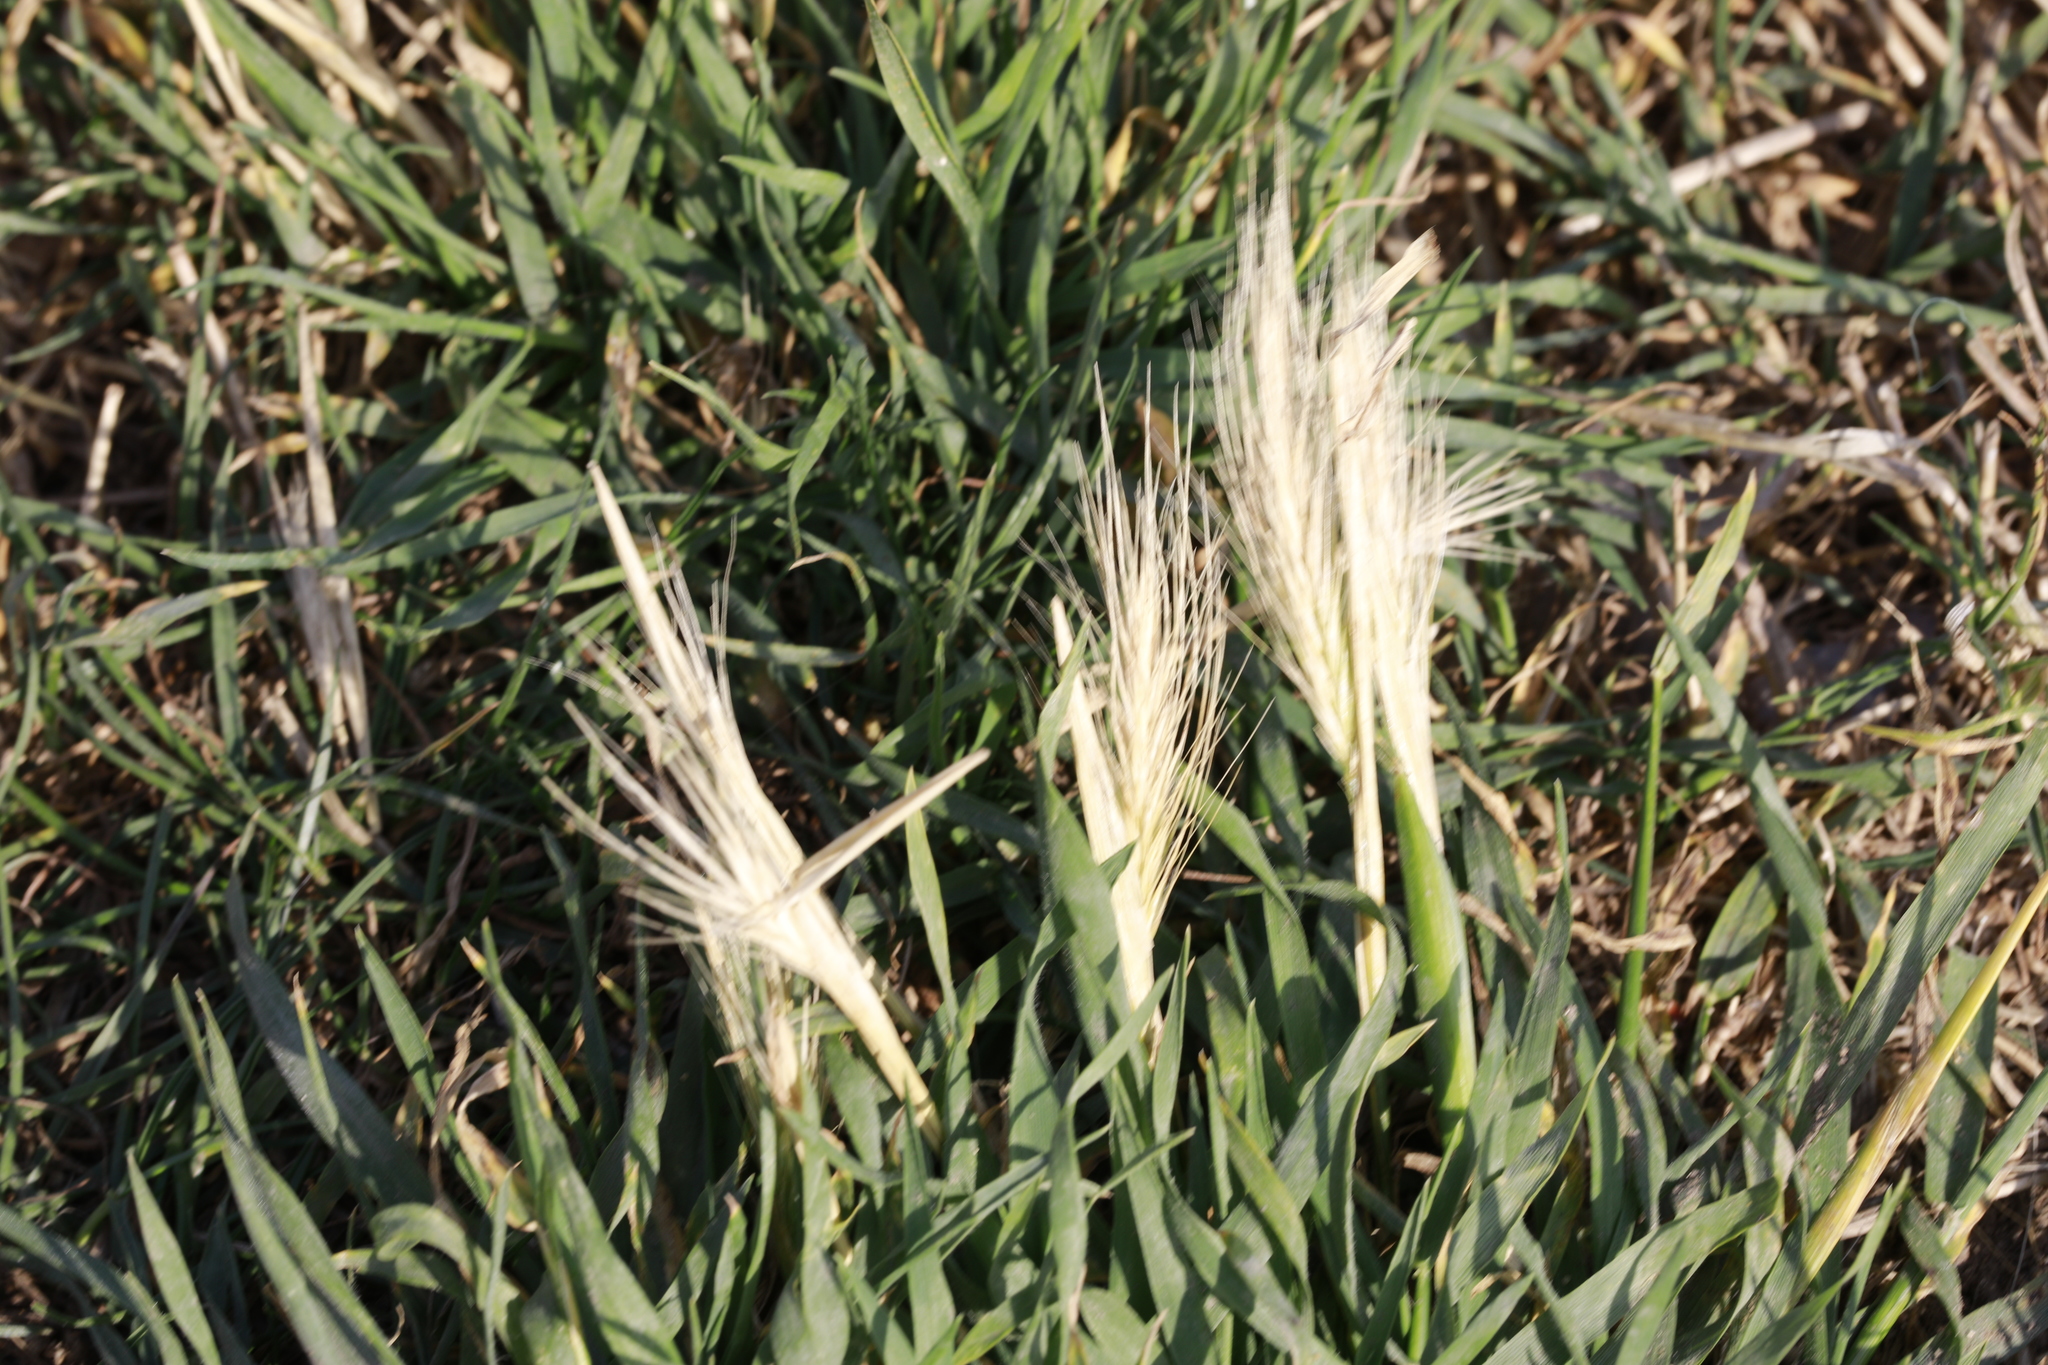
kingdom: Plantae
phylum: Tracheophyta
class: Liliopsida
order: Poales
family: Poaceae
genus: Hordeum
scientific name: Hordeum murinum
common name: Wall barley
